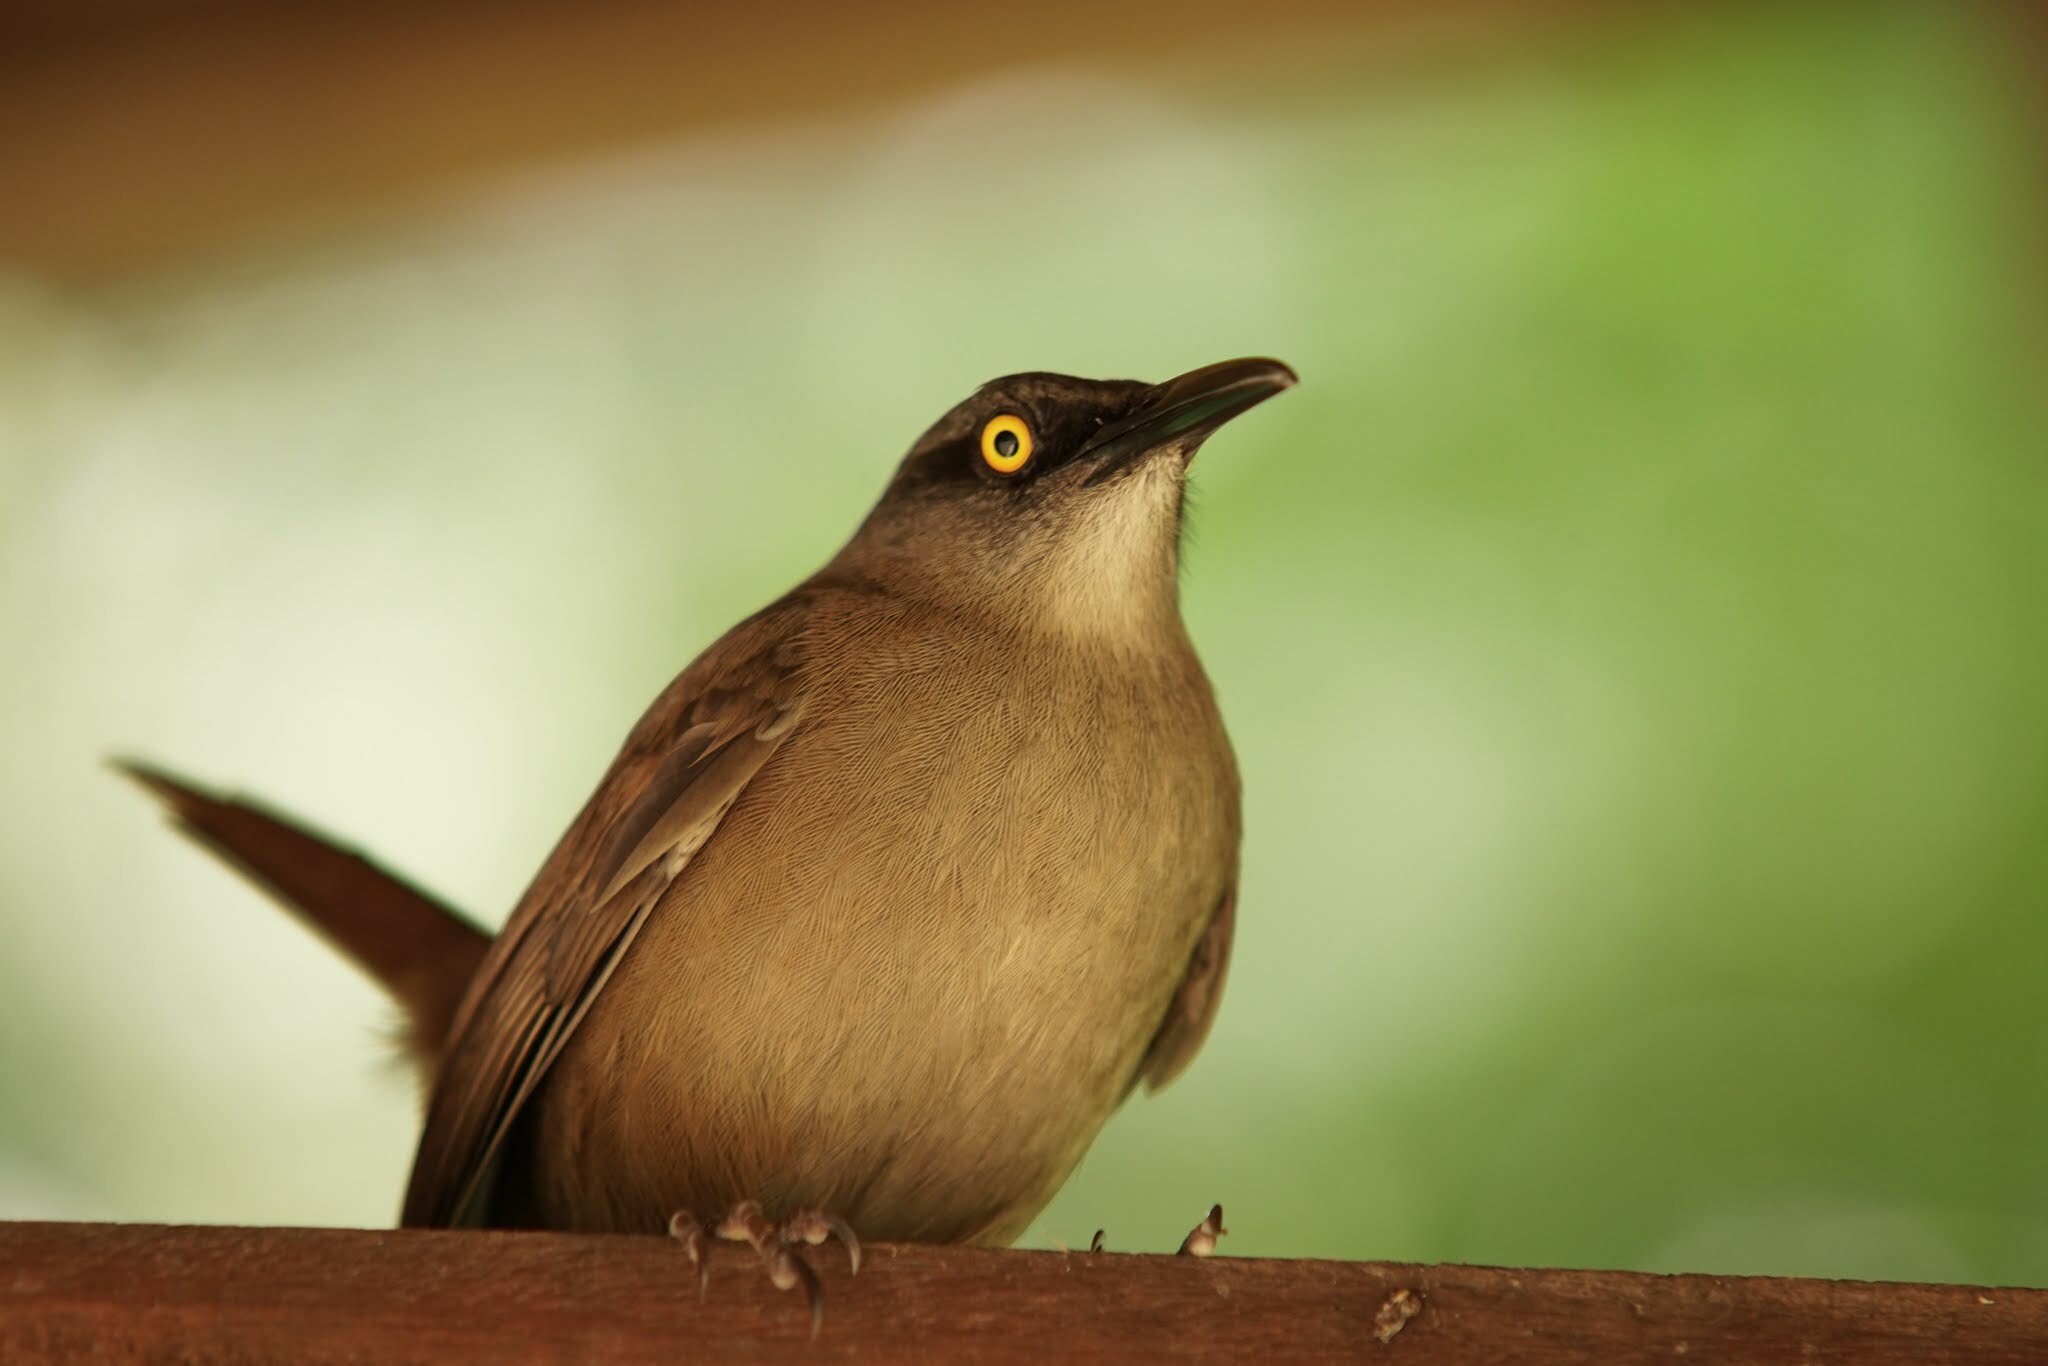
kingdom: Animalia
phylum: Chordata
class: Aves
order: Passeriformes
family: Mimidae
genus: Cinclocerthia
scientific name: Cinclocerthia ruficauda
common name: Brown trembler
